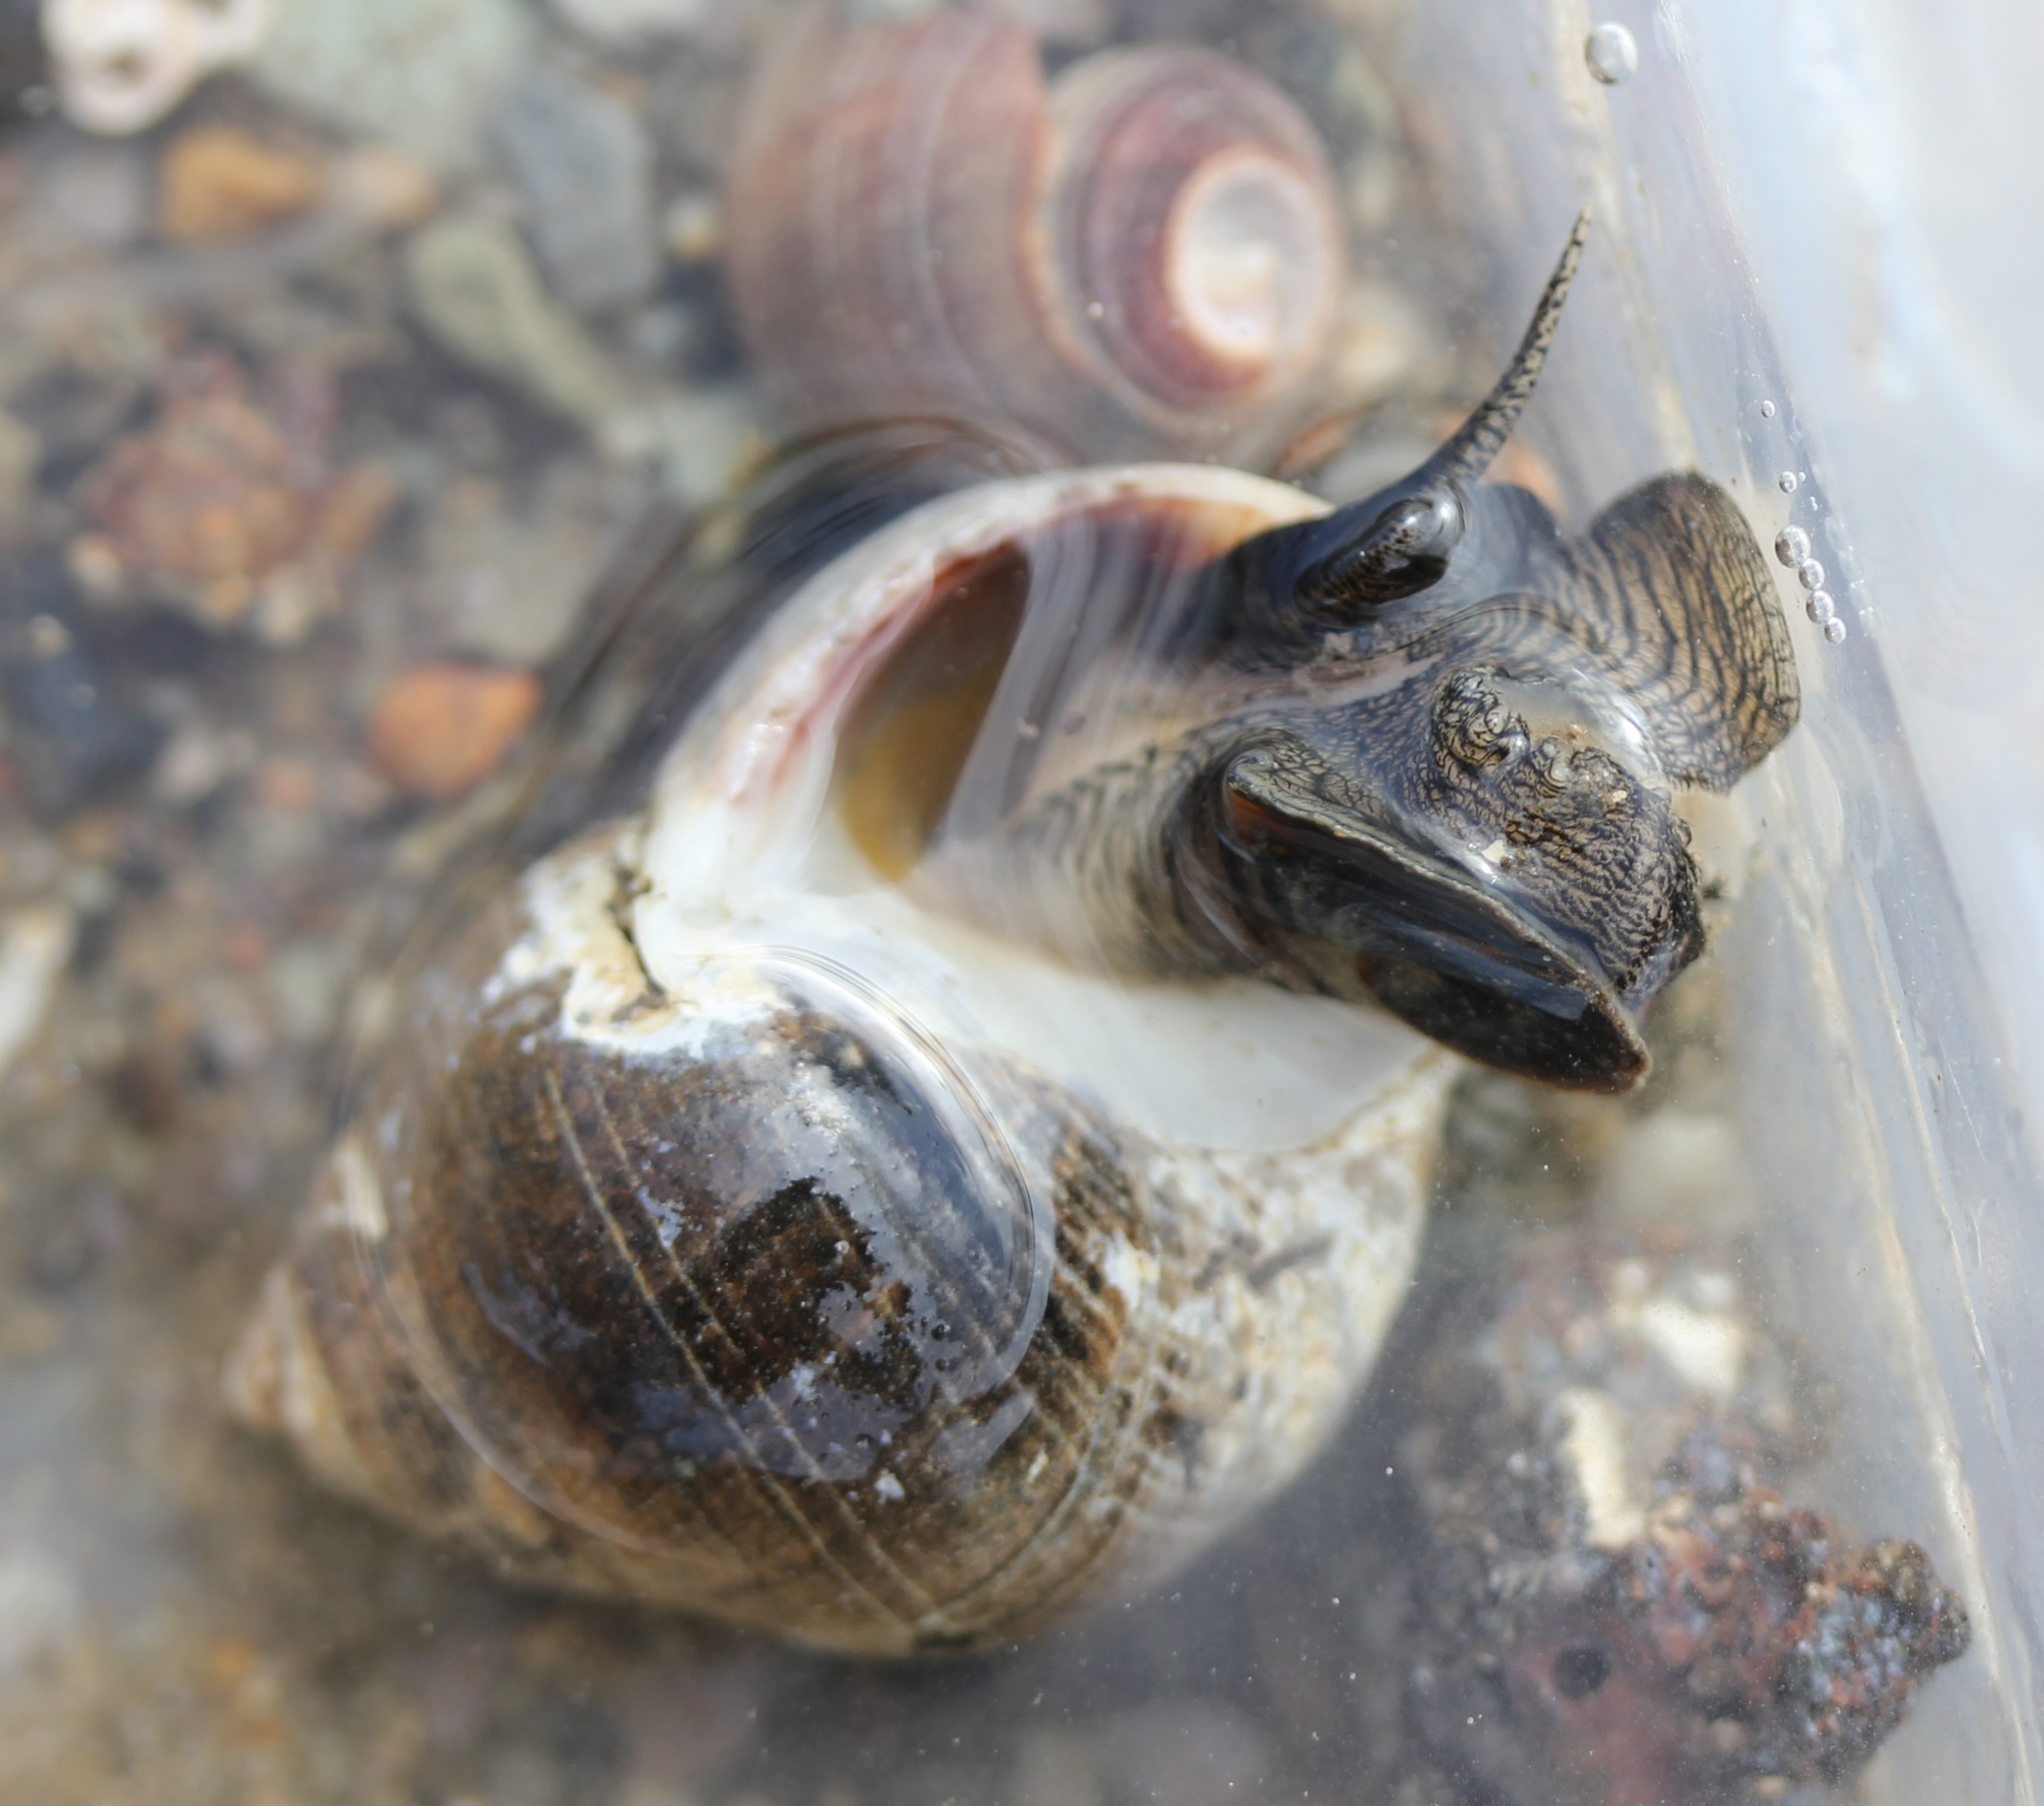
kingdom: Animalia
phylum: Mollusca
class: Gastropoda
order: Littorinimorpha
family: Littorinidae
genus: Littorina
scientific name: Littorina littorea
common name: Common periwinkle
